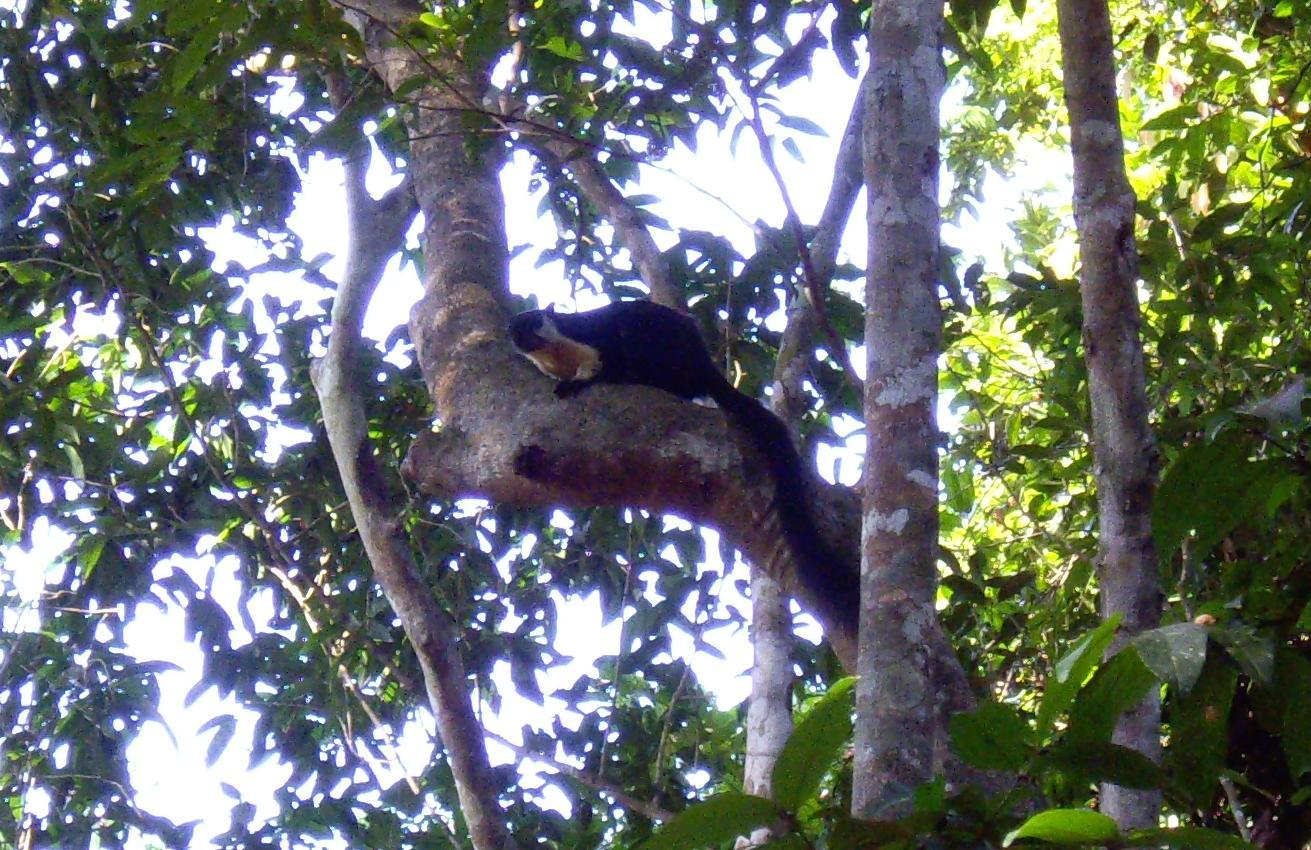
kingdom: Animalia
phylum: Chordata
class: Mammalia
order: Rodentia
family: Sciuridae
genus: Ratufa
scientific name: Ratufa bicolor
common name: Black giant squirrel
